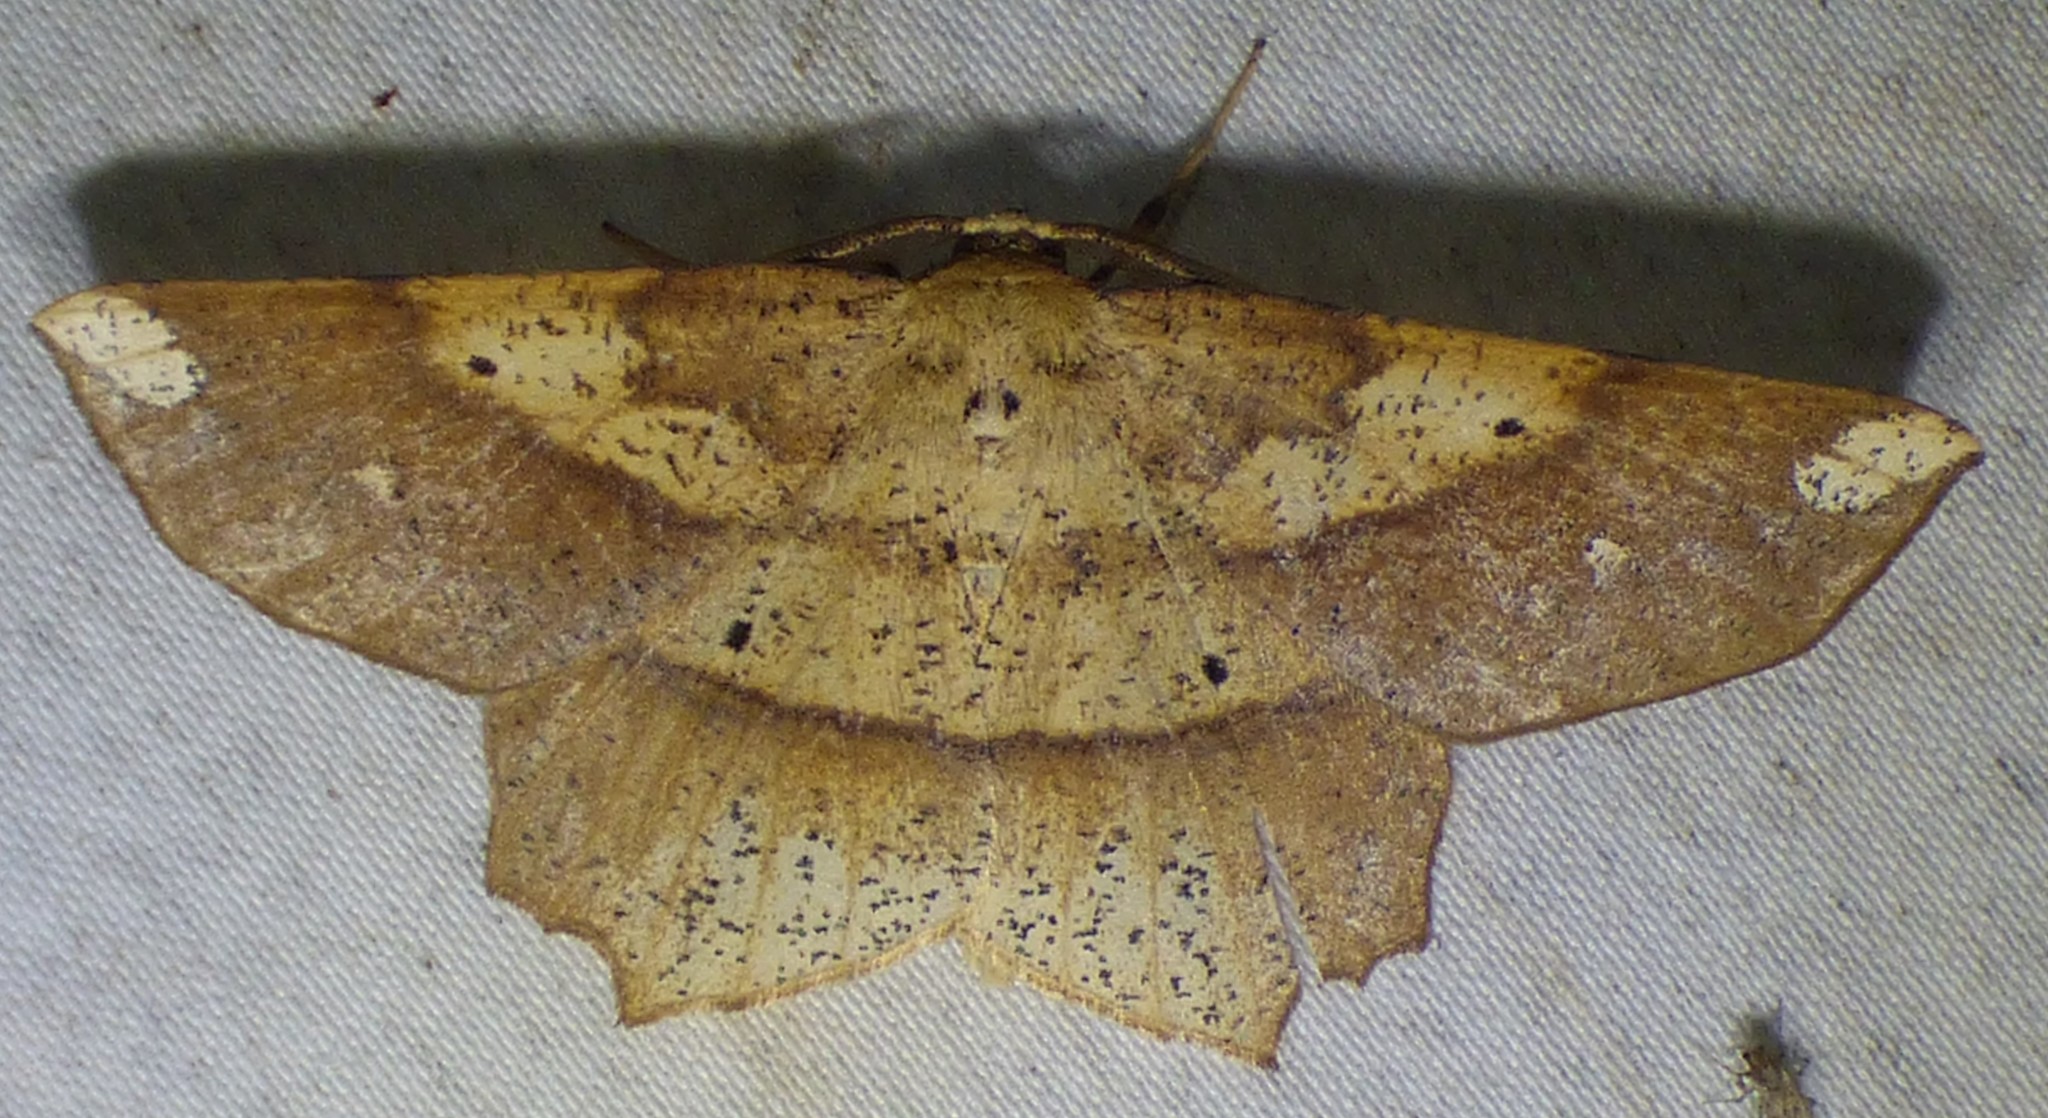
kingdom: Animalia
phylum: Arthropoda
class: Insecta
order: Lepidoptera
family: Geometridae
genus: Euchlaena
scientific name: Euchlaena amoenaria
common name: Deep yellow euchlaena
